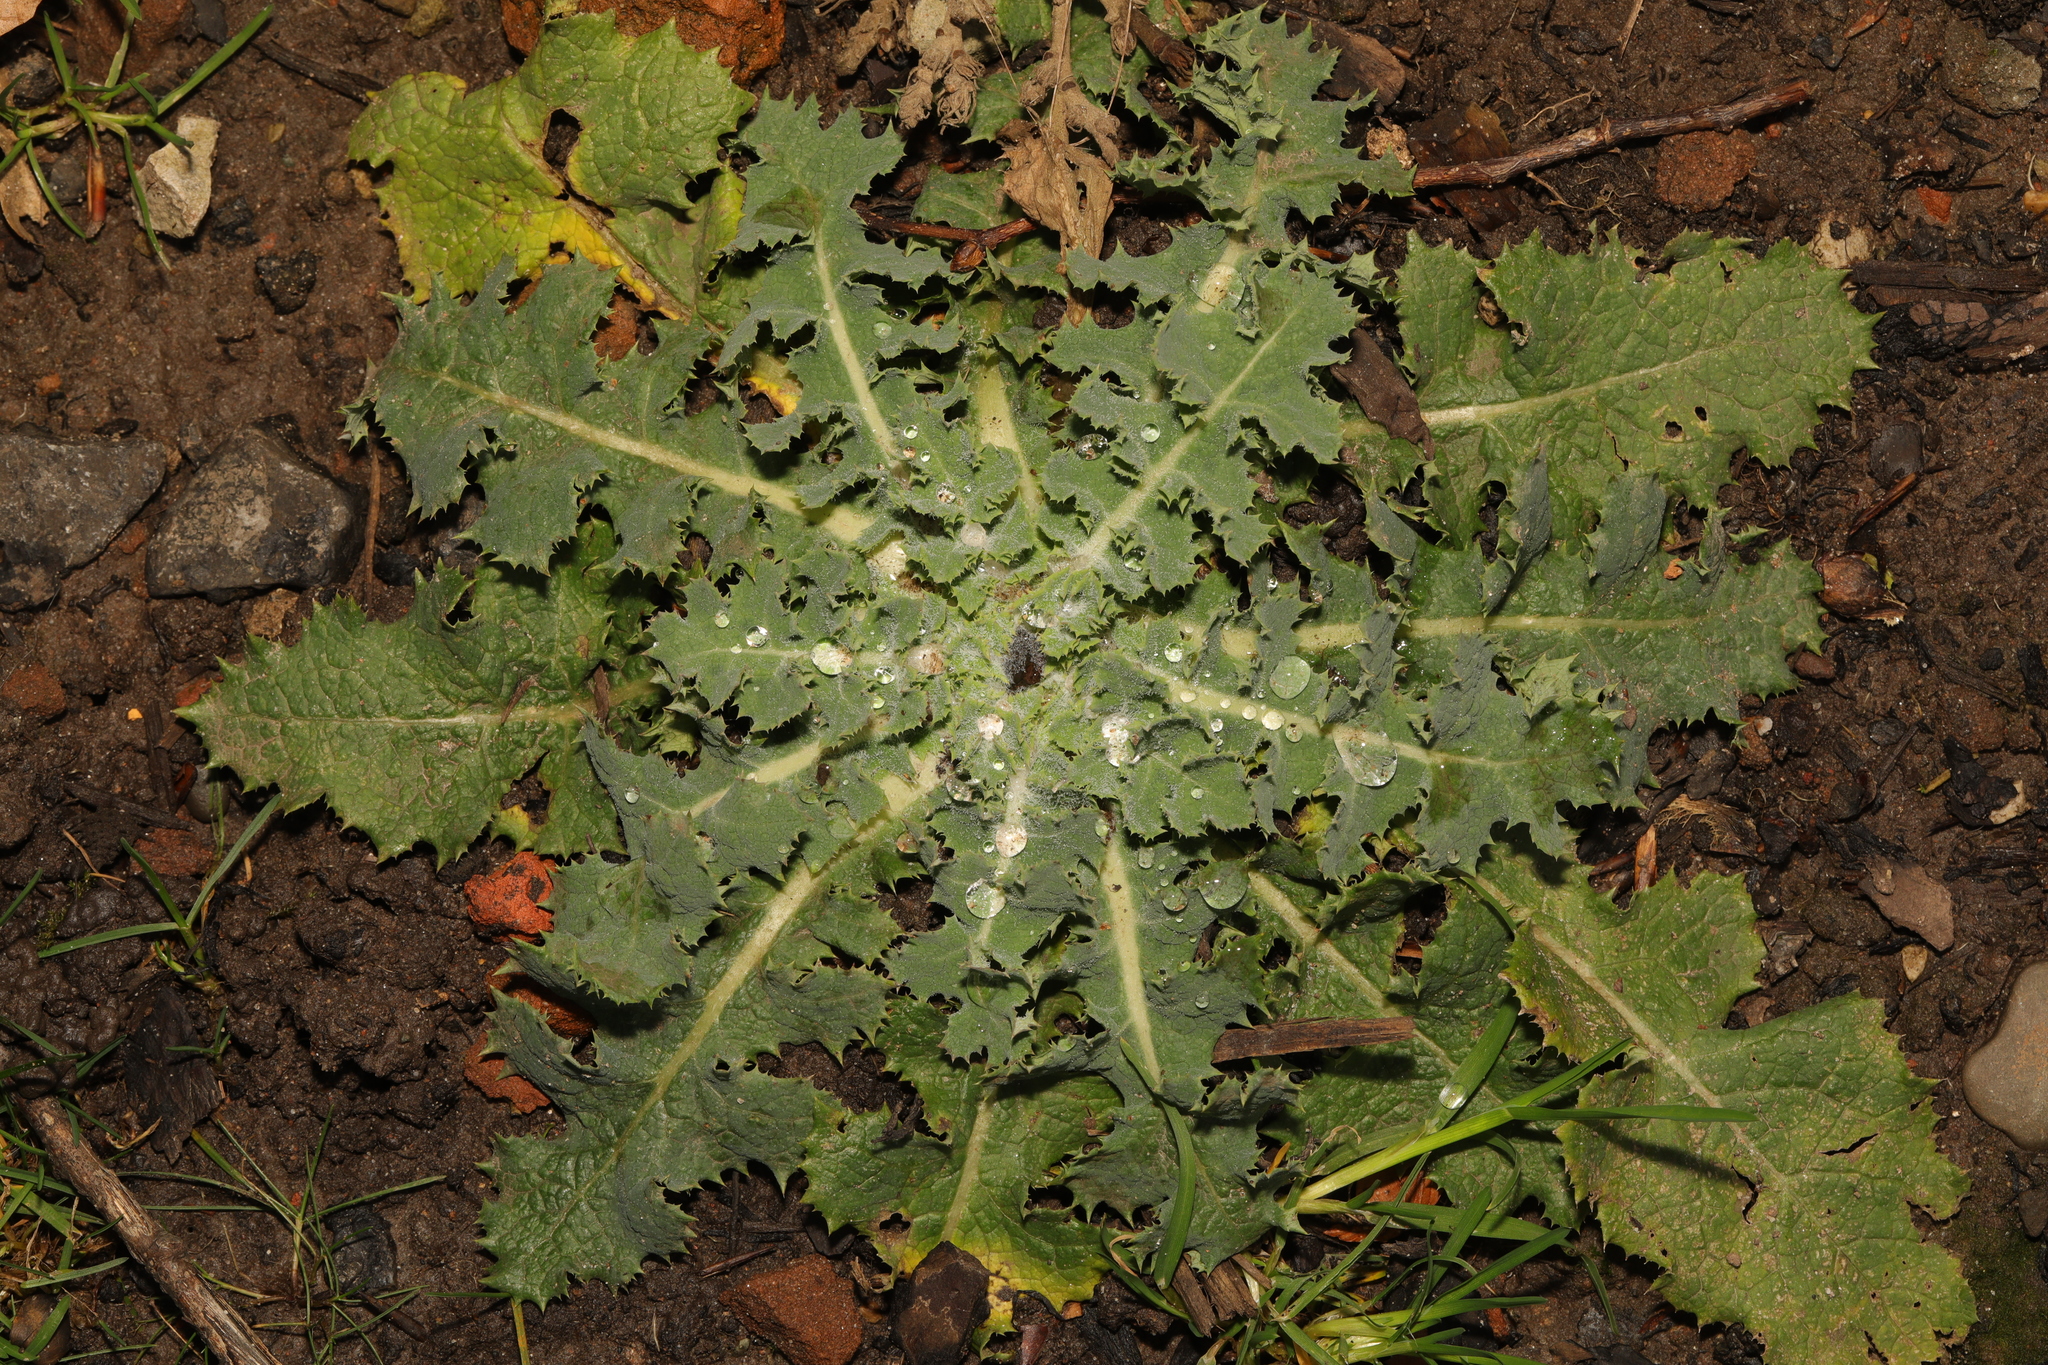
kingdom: Plantae
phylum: Tracheophyta
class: Magnoliopsida
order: Asterales
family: Asteraceae
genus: Sonchus
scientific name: Sonchus asper
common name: Prickly sow-thistle
